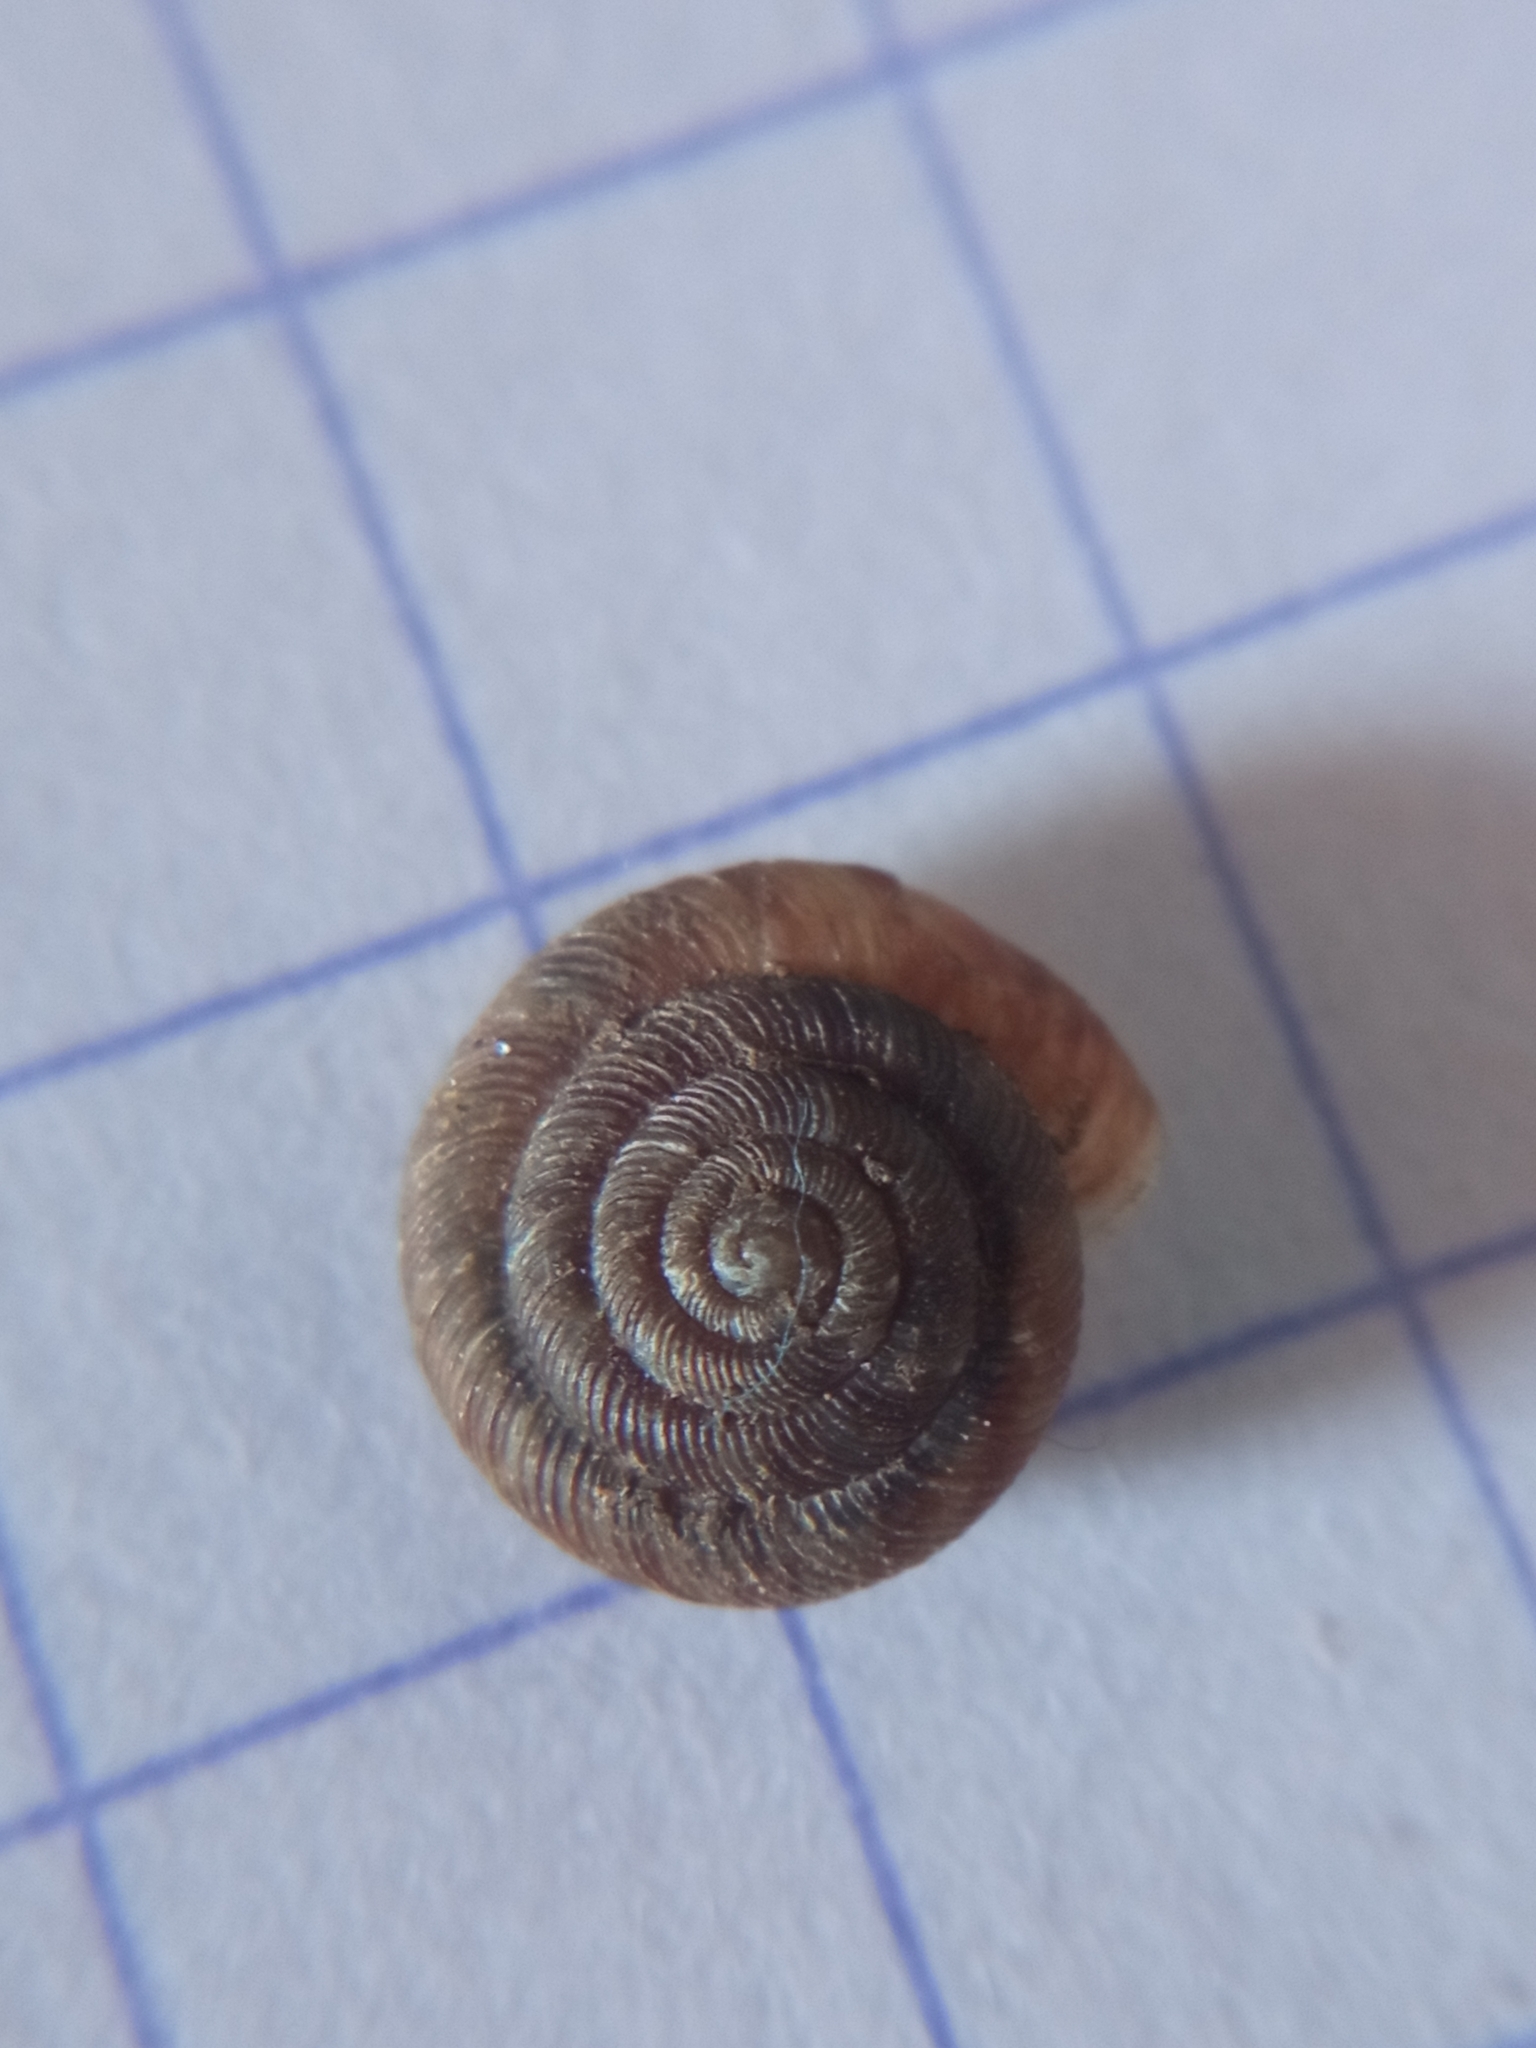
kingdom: Animalia
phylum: Mollusca
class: Gastropoda
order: Stylommatophora
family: Discidae
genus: Discus
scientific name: Discus rotundatus
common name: Rounded snail
